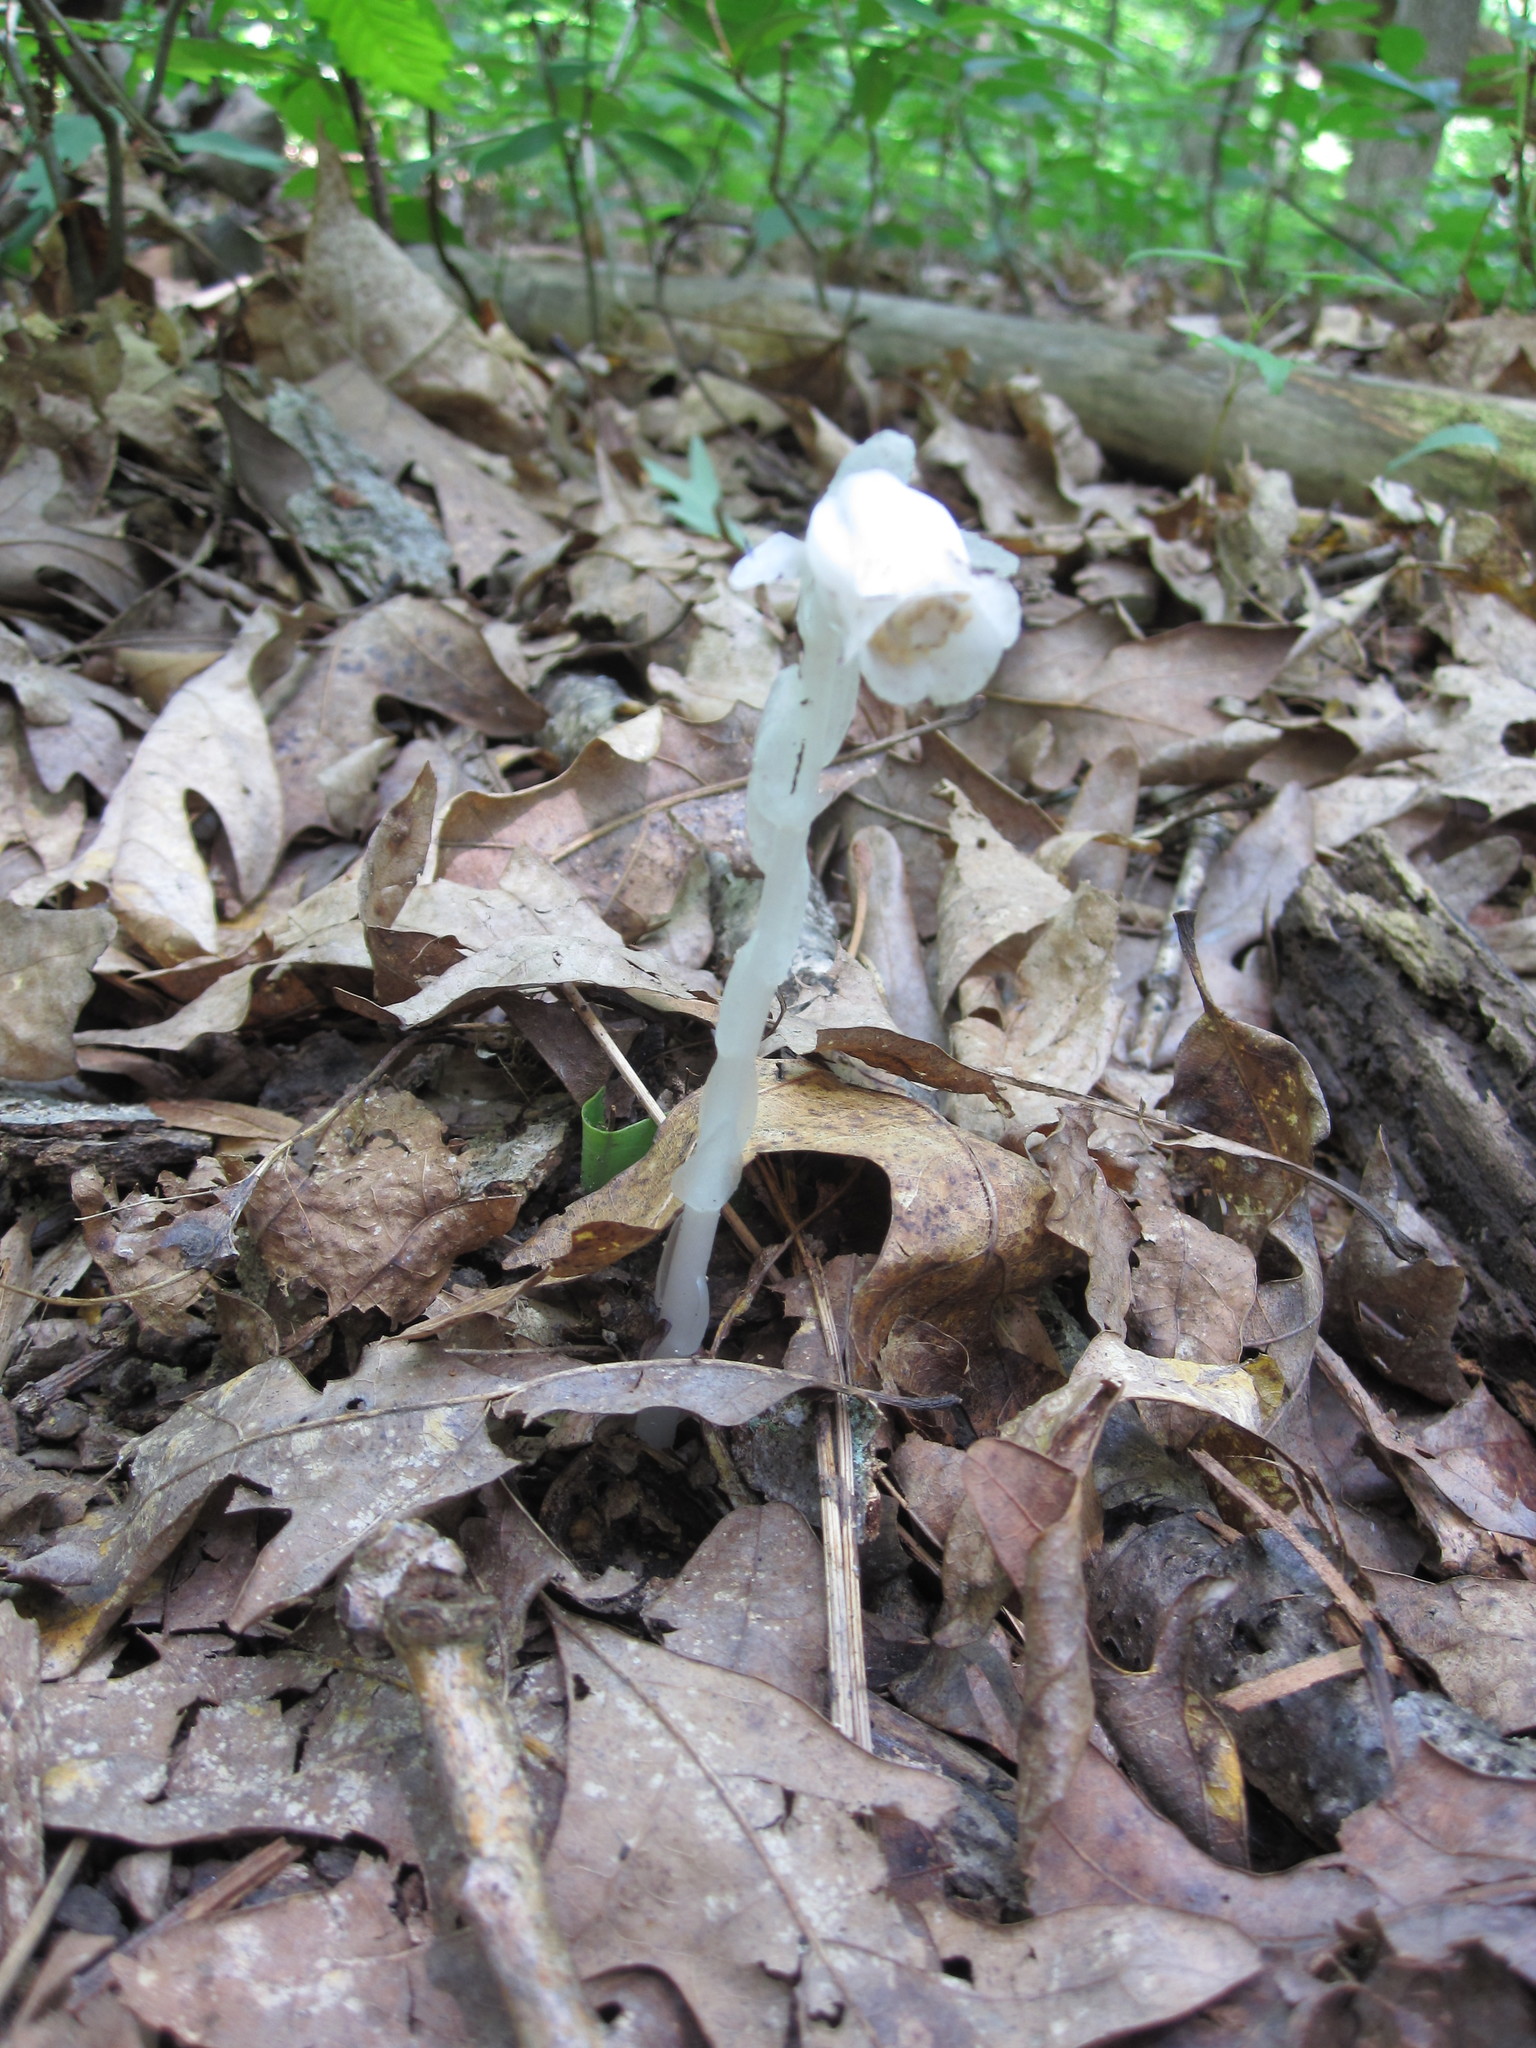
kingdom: Plantae
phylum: Tracheophyta
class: Magnoliopsida
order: Ericales
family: Ericaceae
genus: Monotropa
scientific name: Monotropa uniflora
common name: Convulsion root
